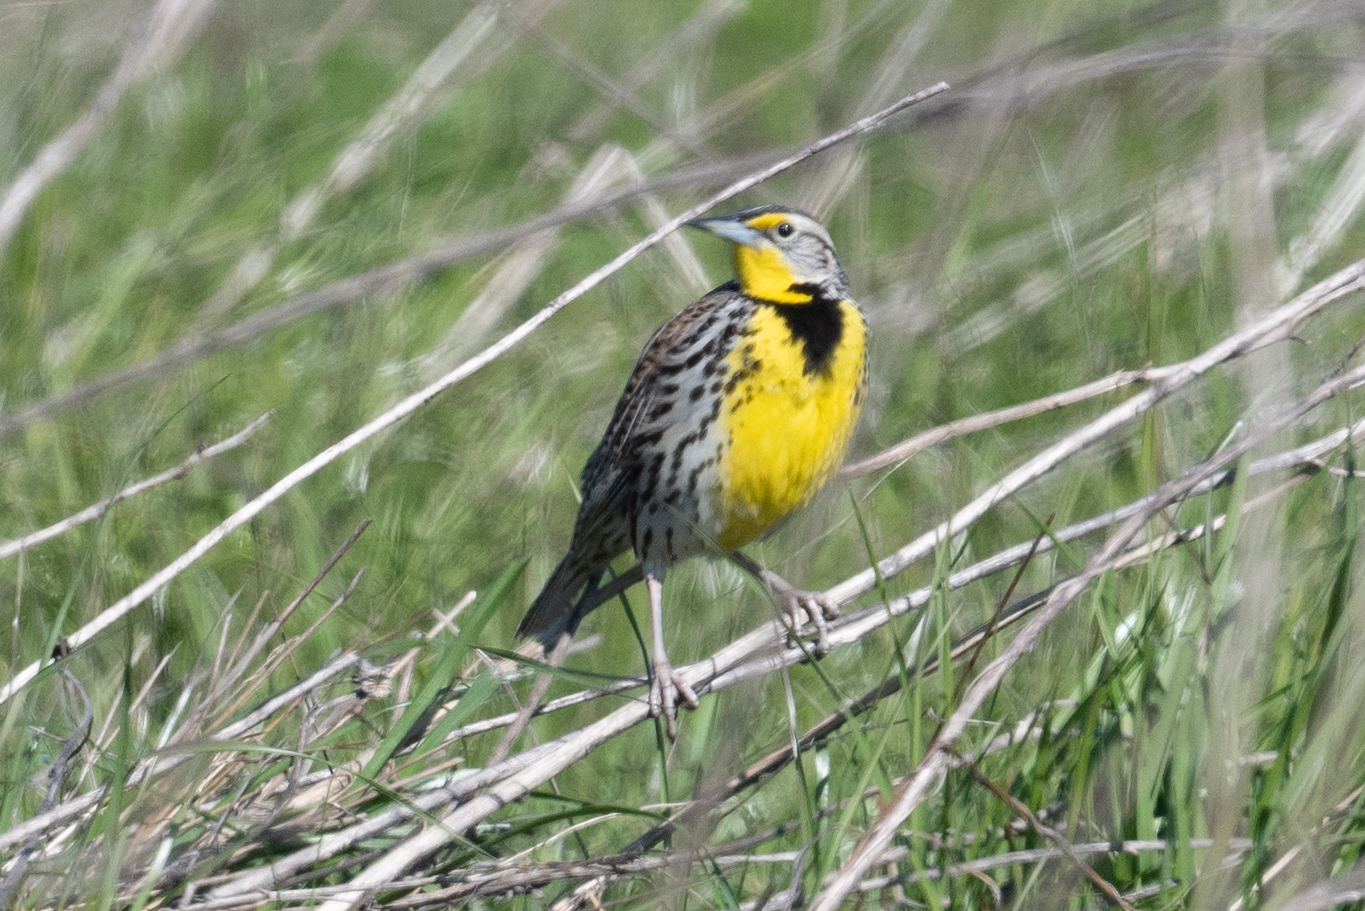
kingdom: Animalia
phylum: Chordata
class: Aves
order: Passeriformes
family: Icteridae
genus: Sturnella
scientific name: Sturnella neglecta
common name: Western meadowlark
